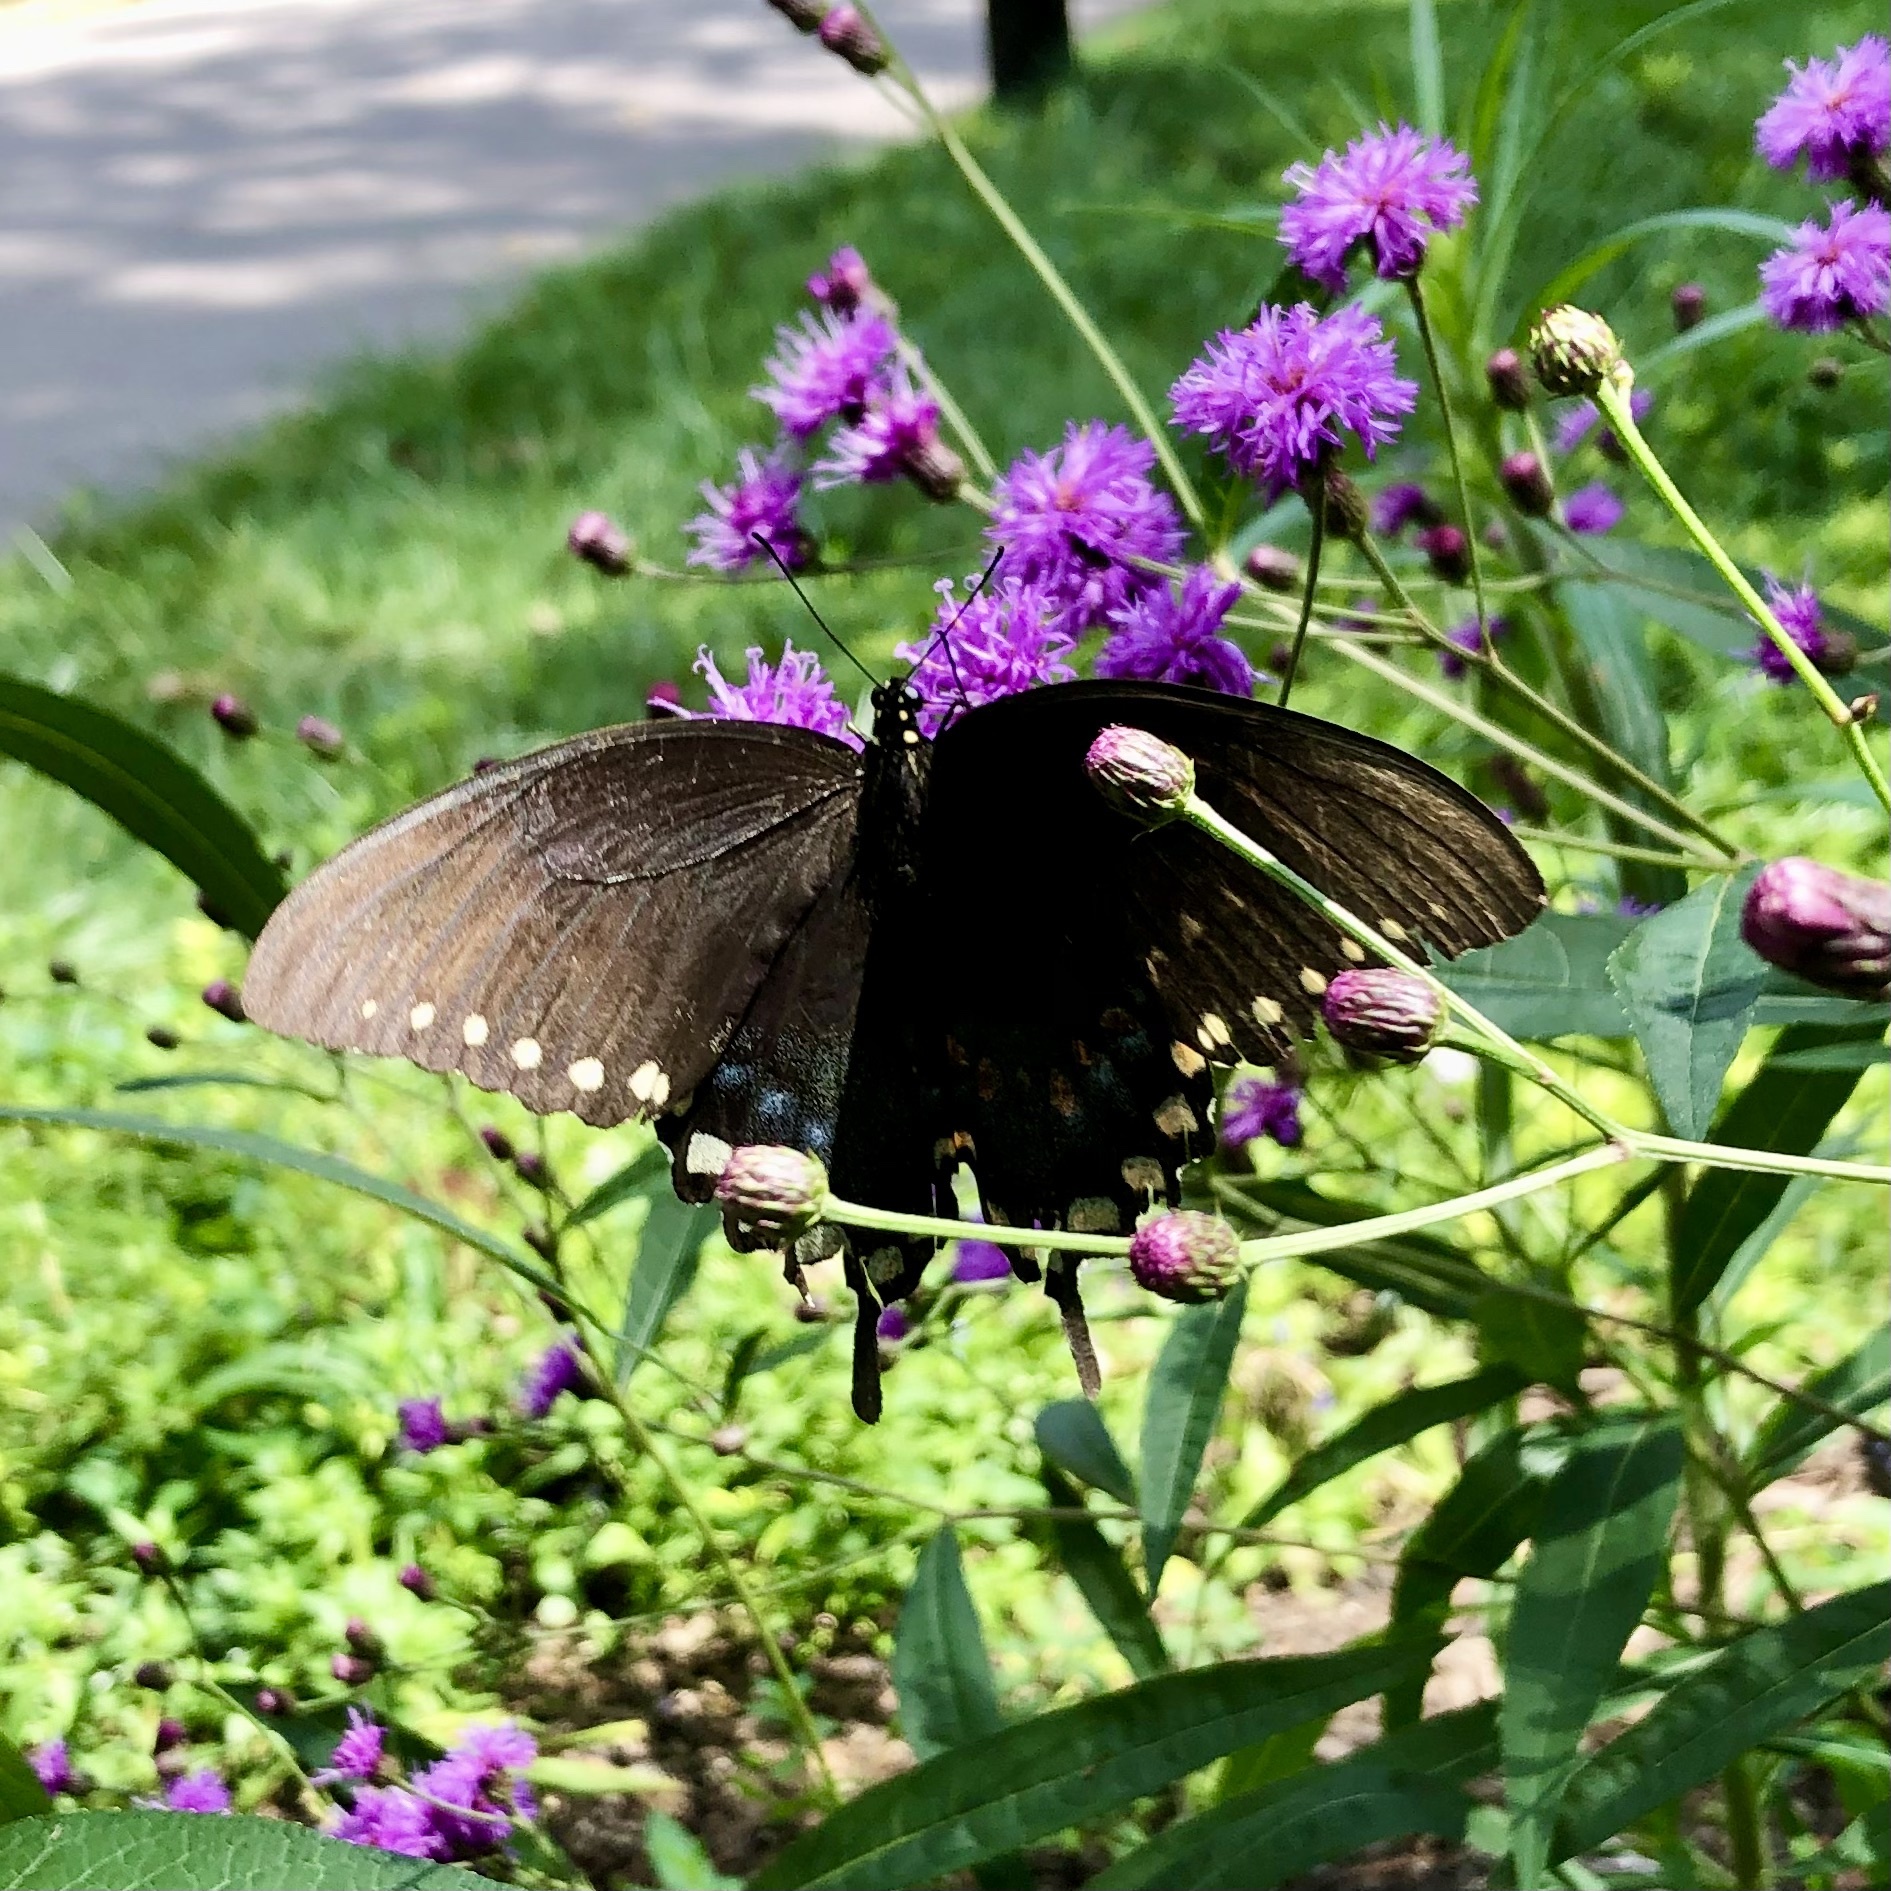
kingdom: Animalia
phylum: Arthropoda
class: Insecta
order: Lepidoptera
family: Papilionidae
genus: Papilio
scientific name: Papilio troilus
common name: Spicebush swallowtail
